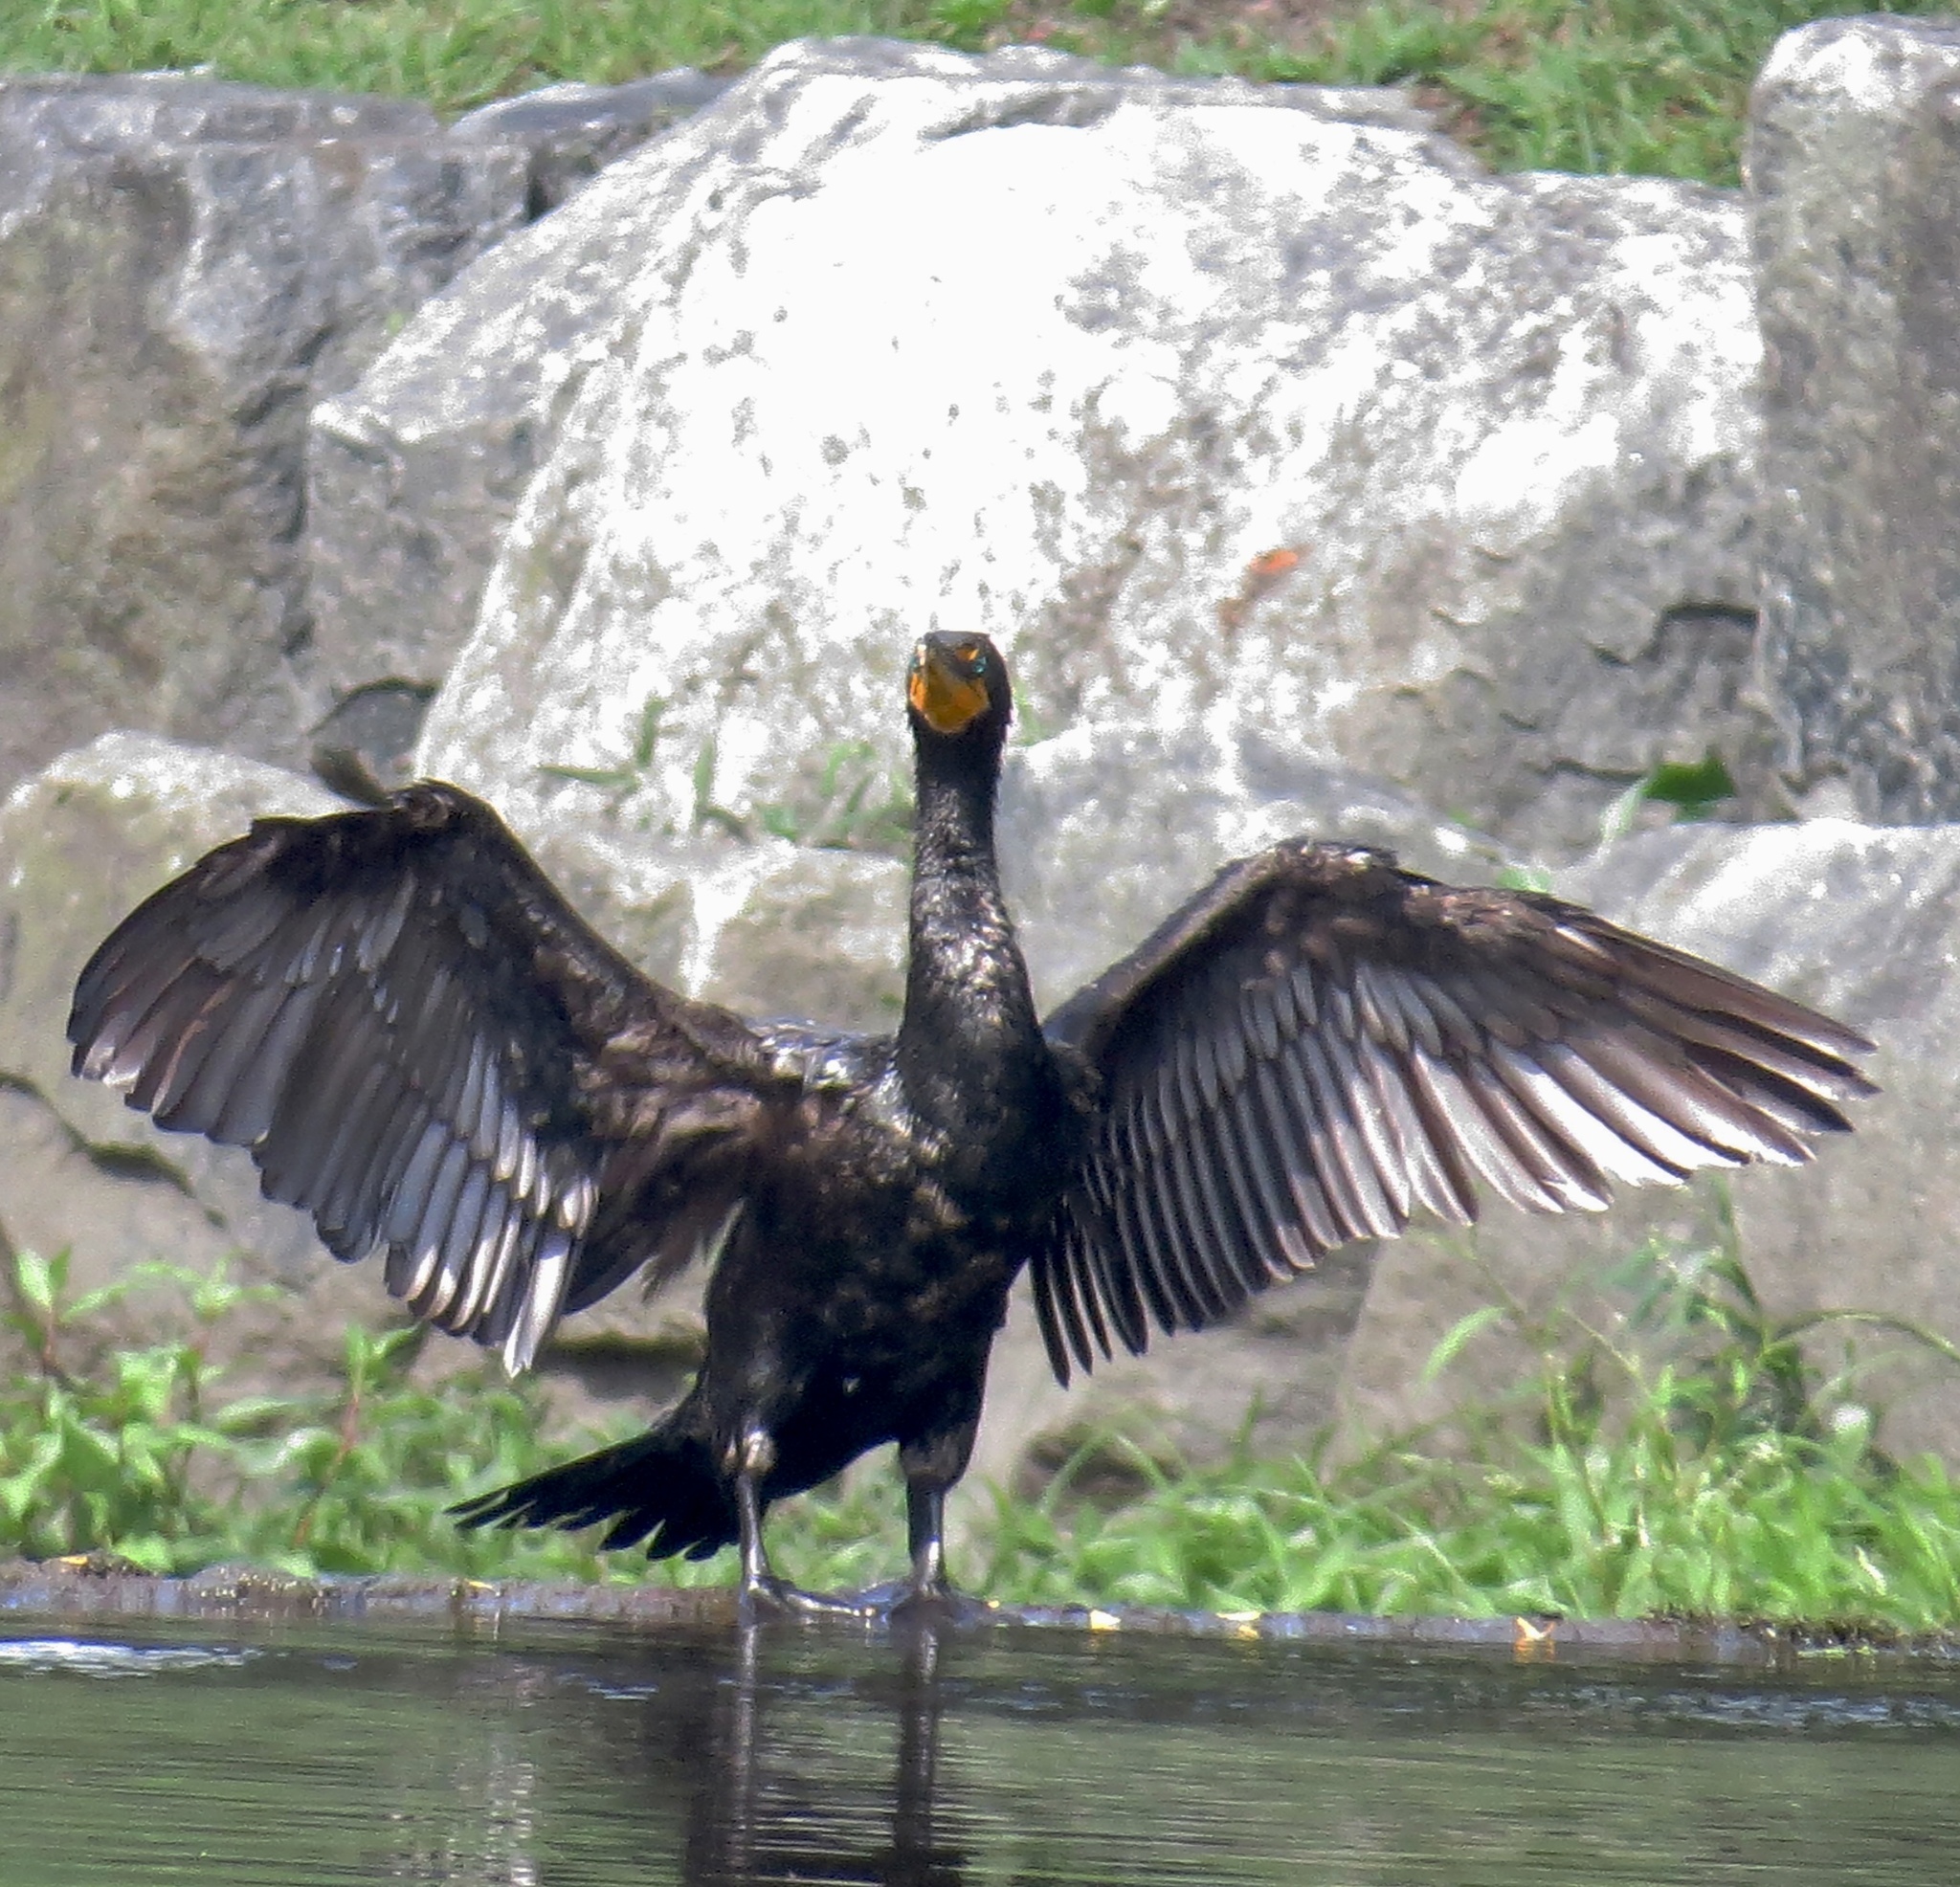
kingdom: Animalia
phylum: Chordata
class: Aves
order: Suliformes
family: Phalacrocoracidae
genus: Phalacrocorax
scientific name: Phalacrocorax auritus
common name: Double-crested cormorant
